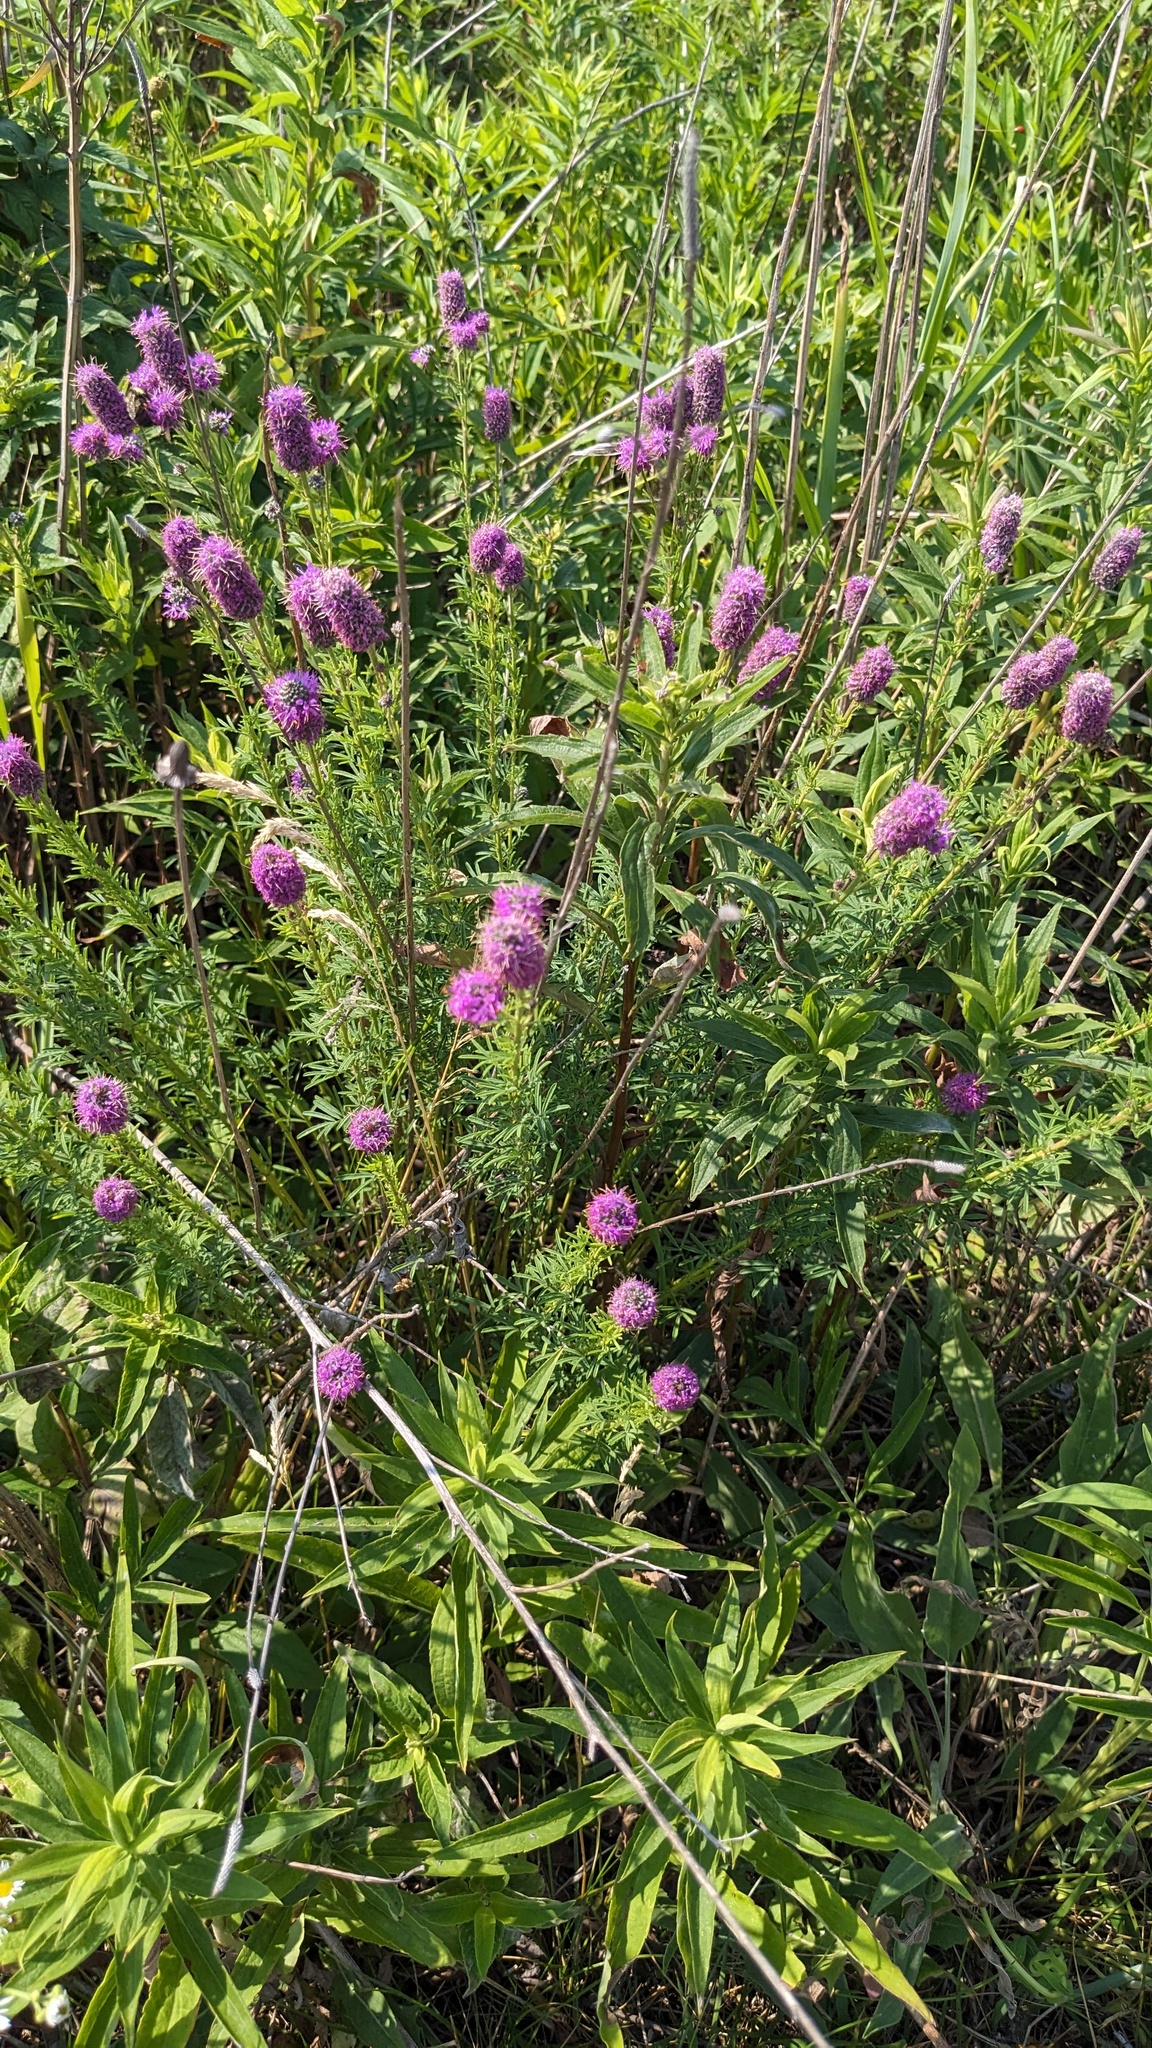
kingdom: Plantae
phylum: Tracheophyta
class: Magnoliopsida
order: Fabales
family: Fabaceae
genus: Dalea
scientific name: Dalea purpurea
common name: Purple prairie-clover
